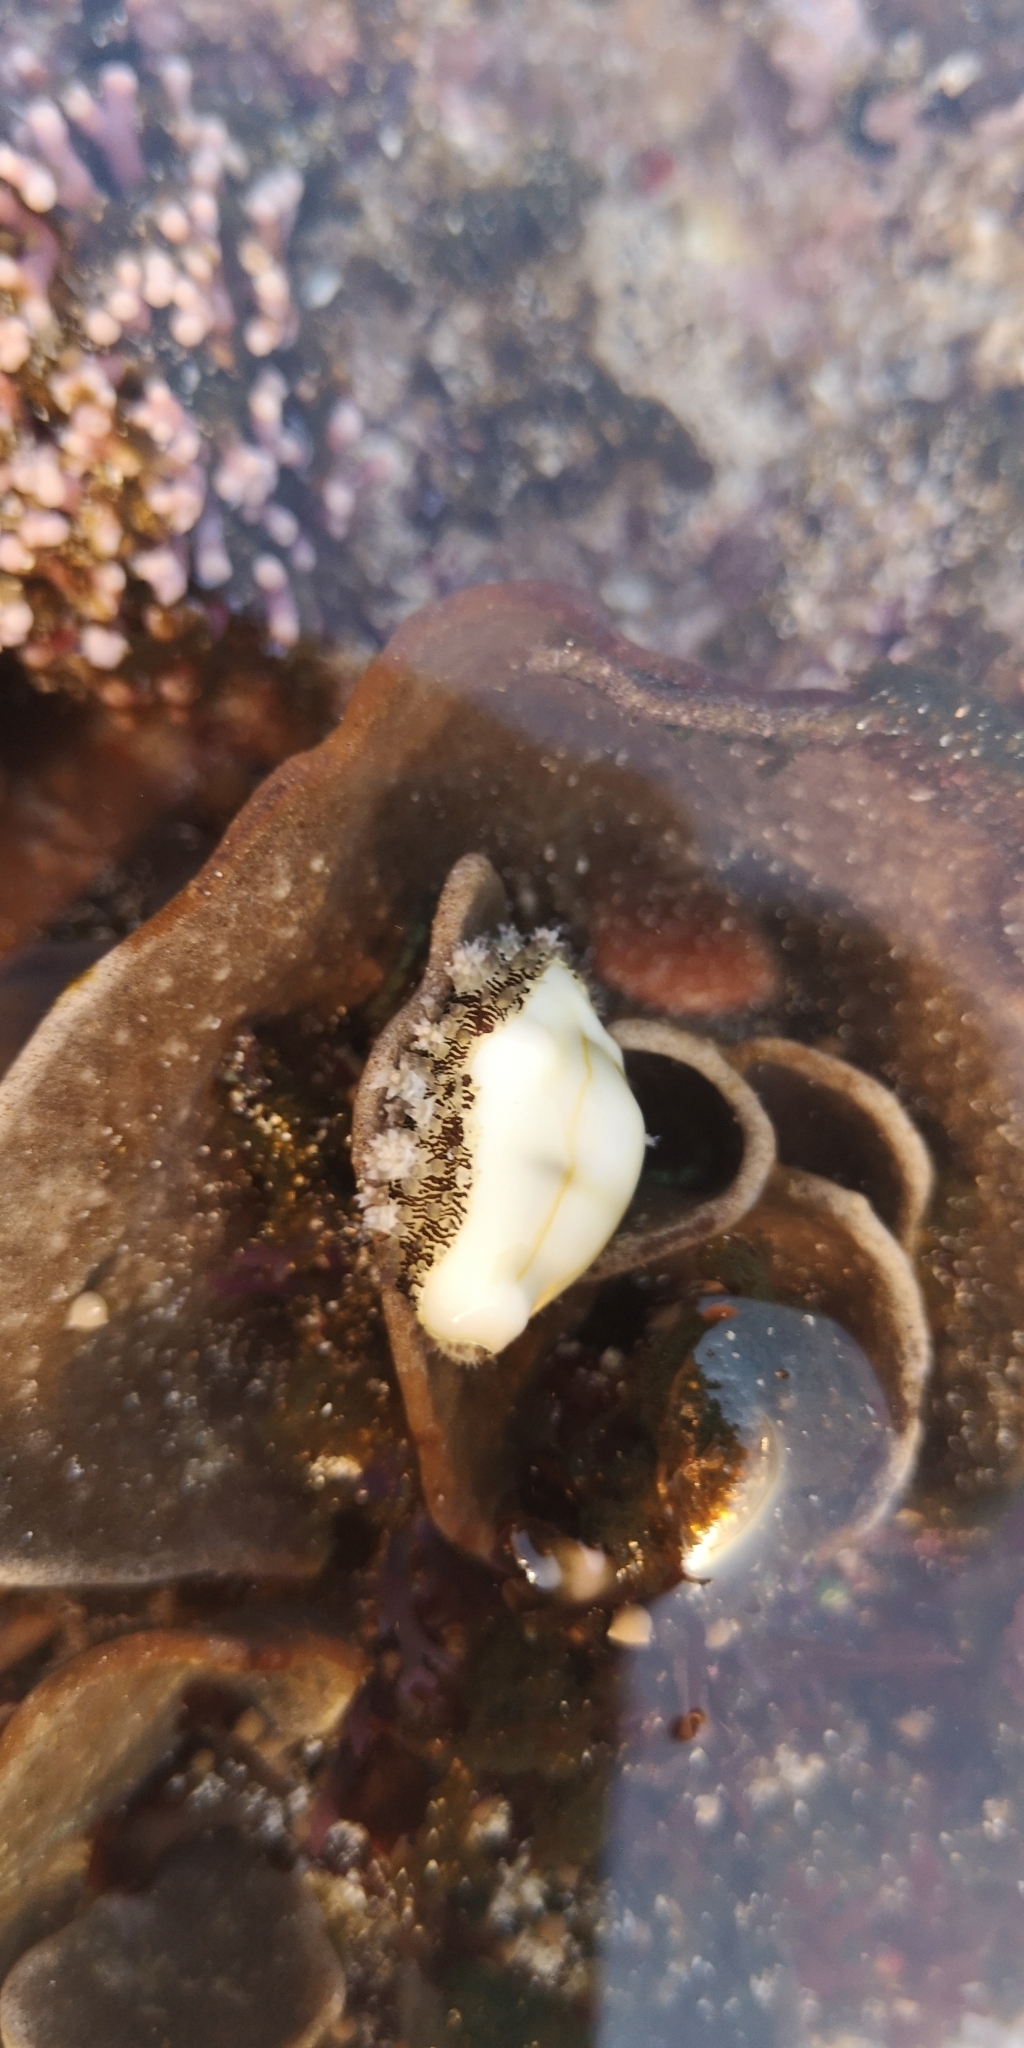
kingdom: Animalia
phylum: Mollusca
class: Gastropoda
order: Littorinimorpha
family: Cypraeidae
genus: Monetaria
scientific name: Monetaria moneta
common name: Money cowrie
